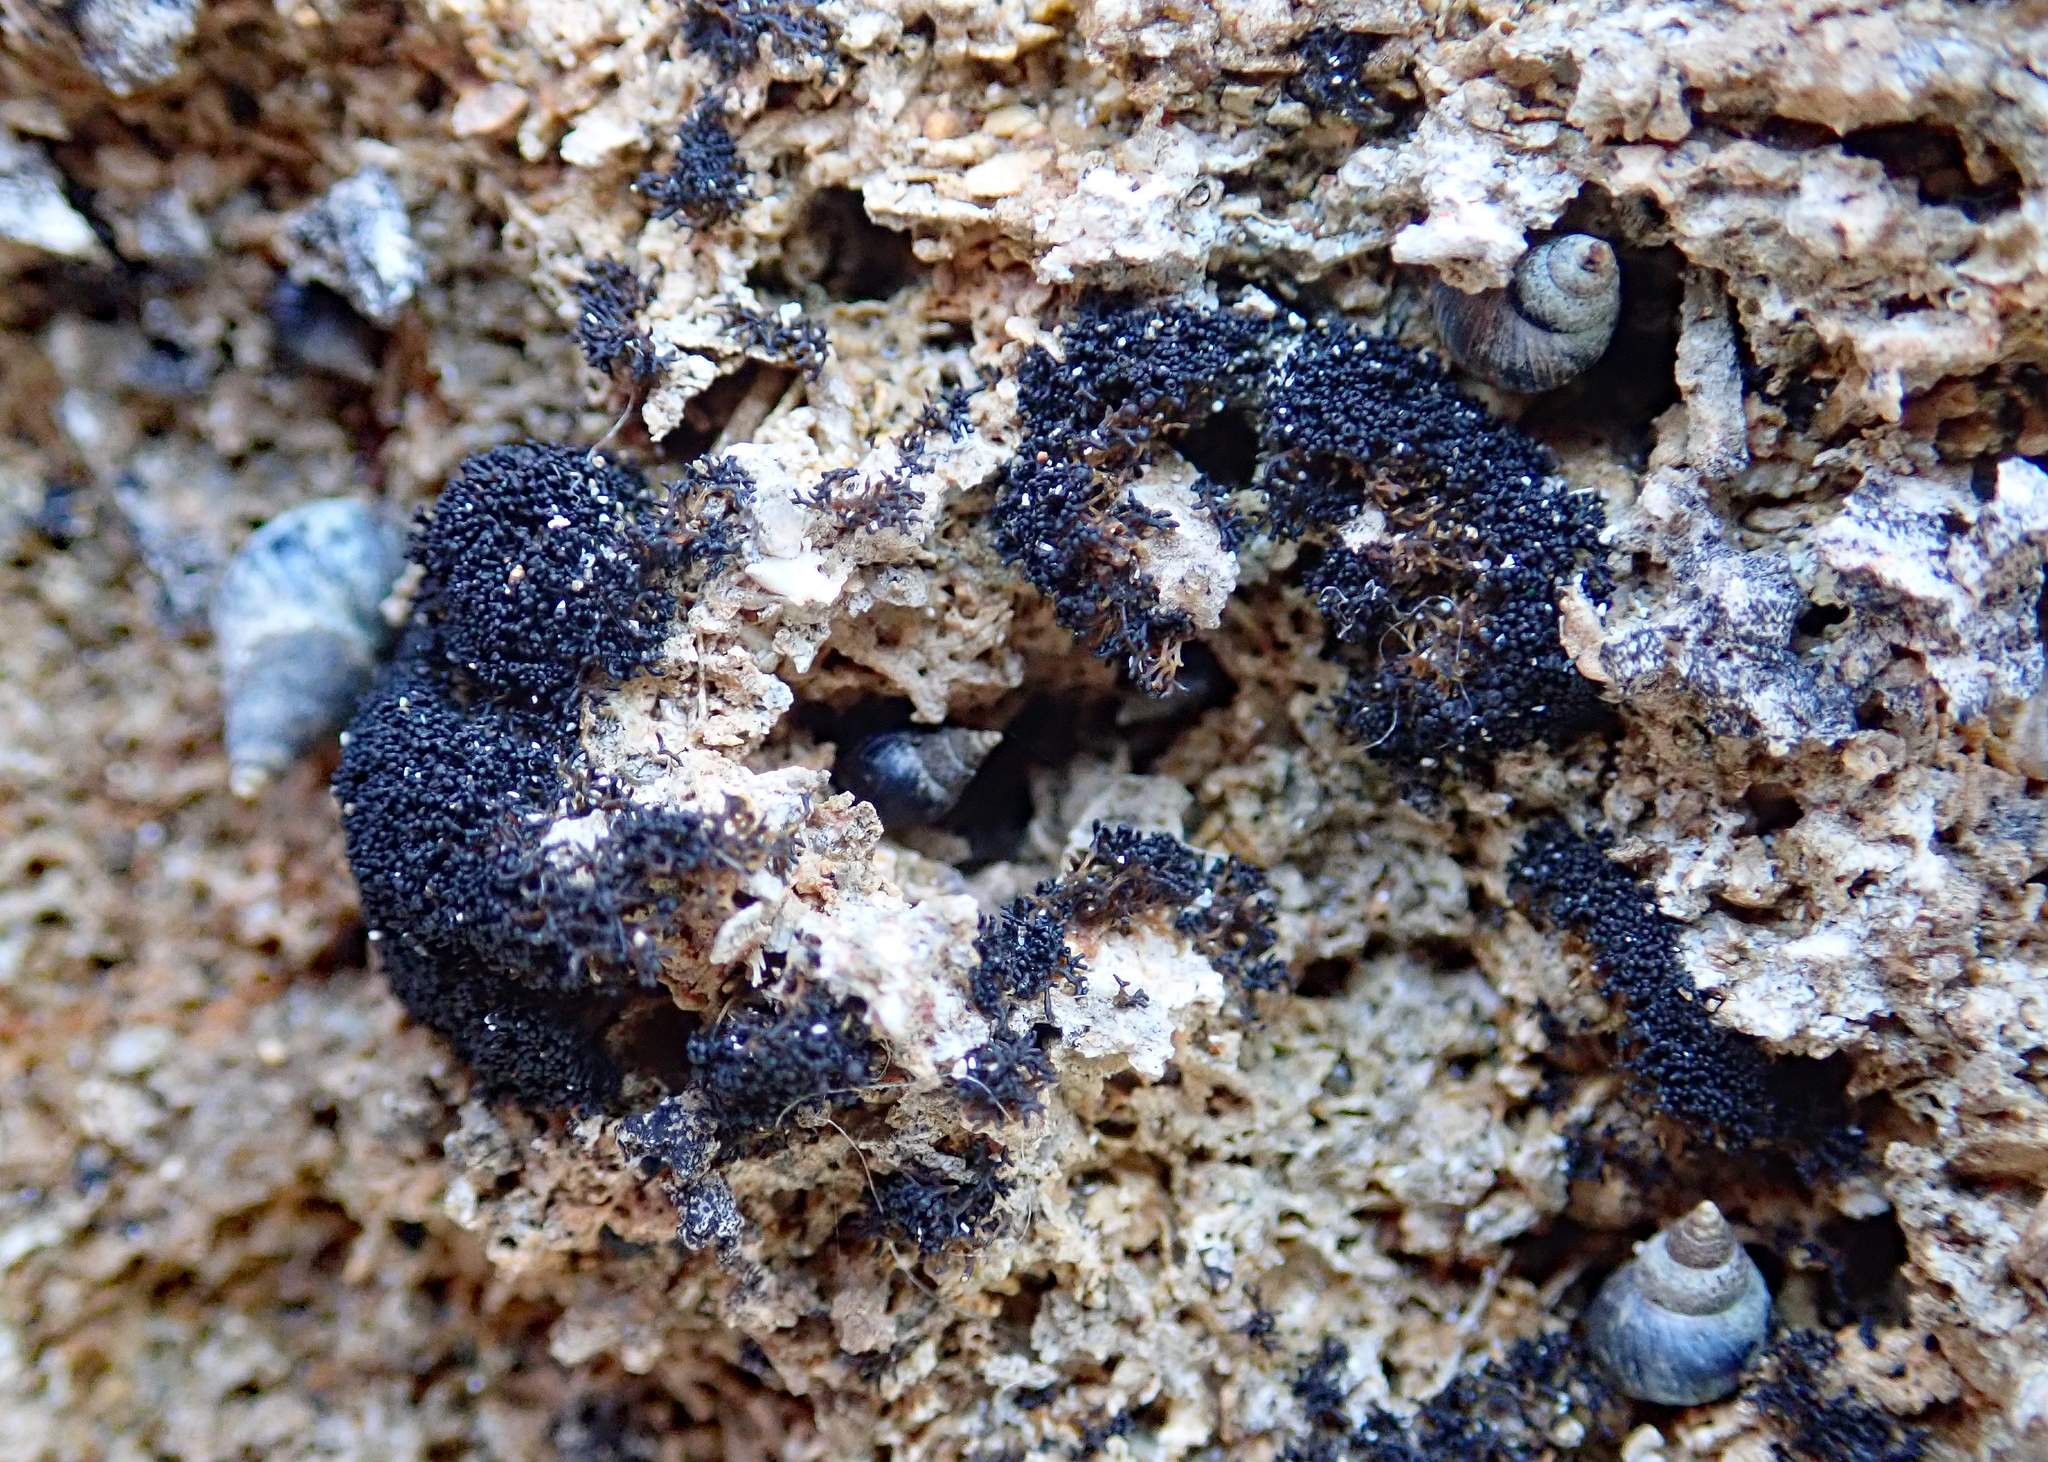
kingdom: Fungi
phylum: Ascomycota
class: Lichinomycetes
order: Lichinales
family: Lichinaceae
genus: Lichina
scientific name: Lichina intermedia
